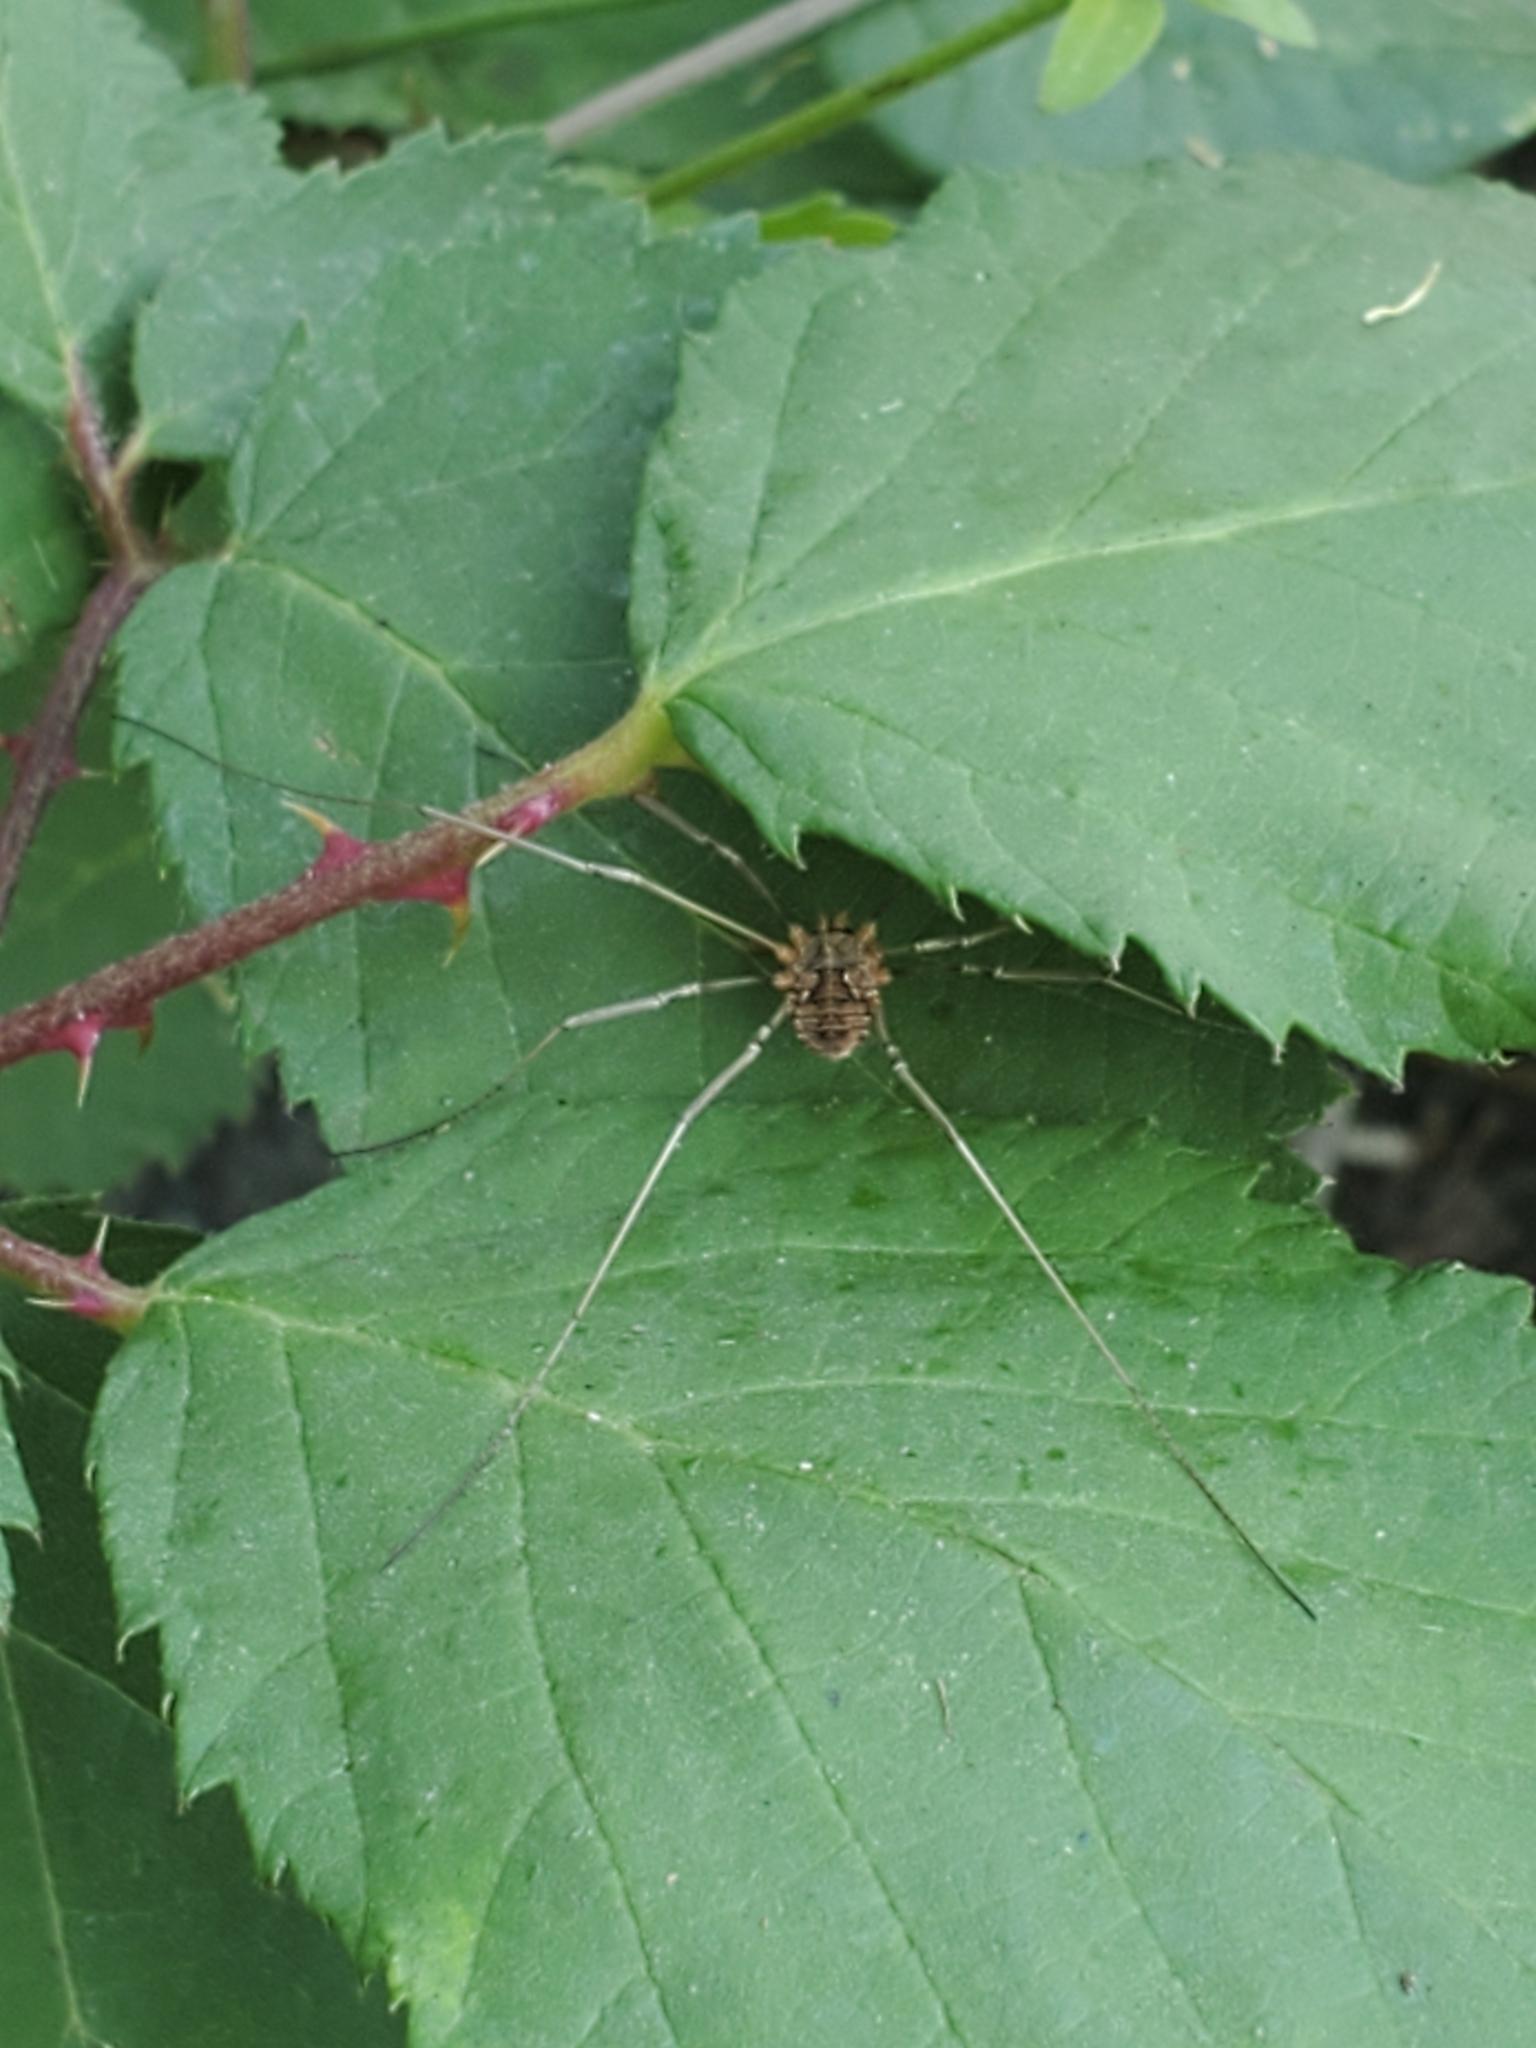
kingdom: Animalia
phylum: Arthropoda
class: Arachnida
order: Opiliones
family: Phalangiidae
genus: Phalangium
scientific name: Phalangium opilio
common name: Daddy longleg
